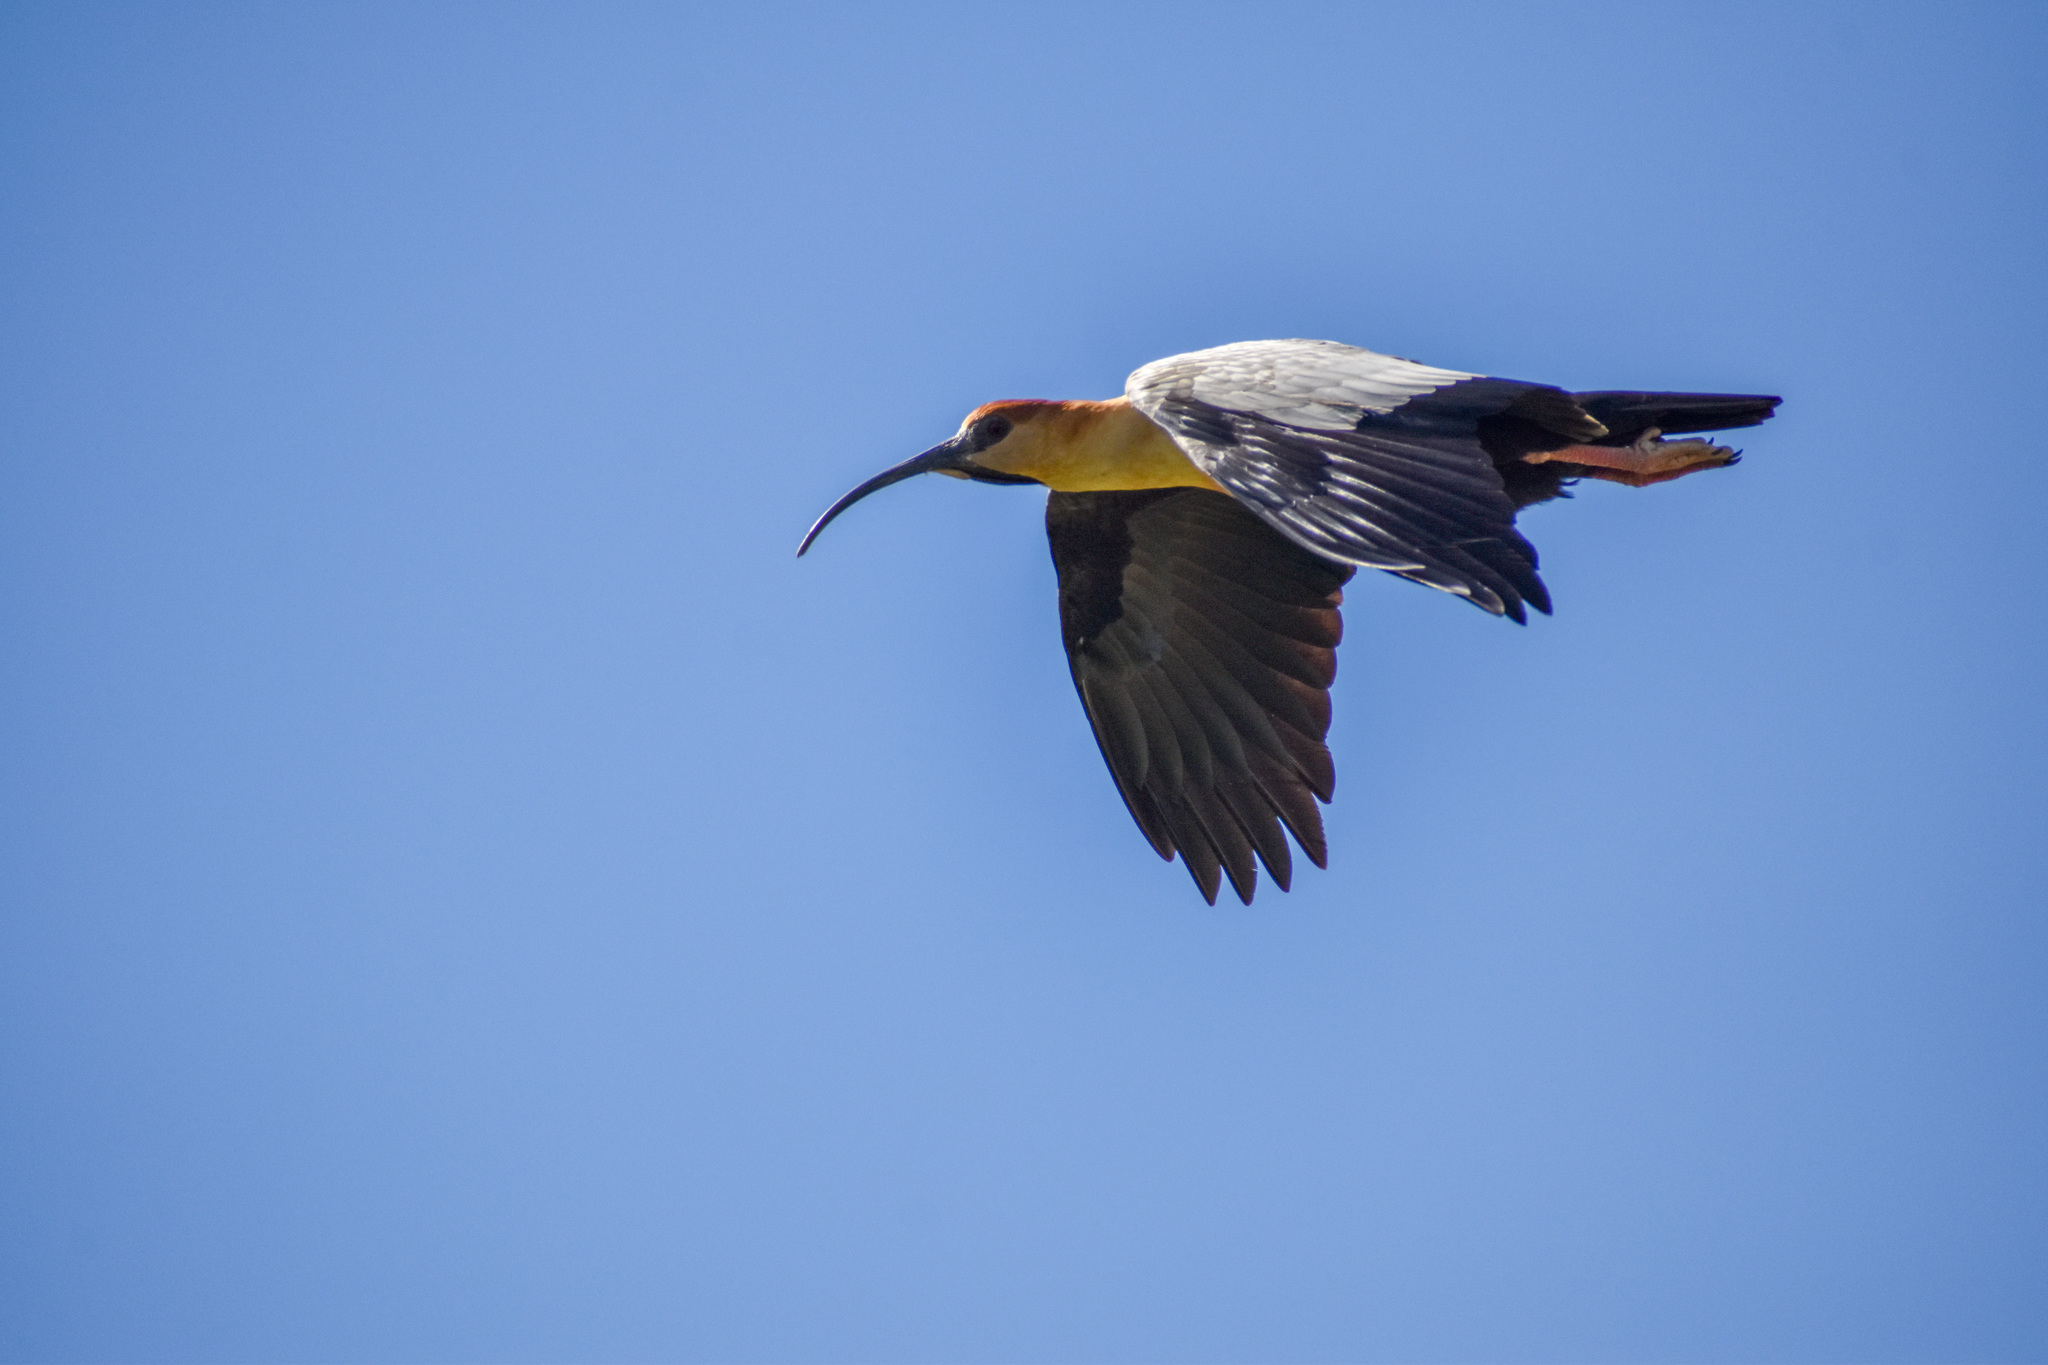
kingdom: Animalia
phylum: Chordata
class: Aves
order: Pelecaniformes
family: Threskiornithidae
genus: Theristicus
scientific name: Theristicus melanopis
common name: Black-faced ibis
